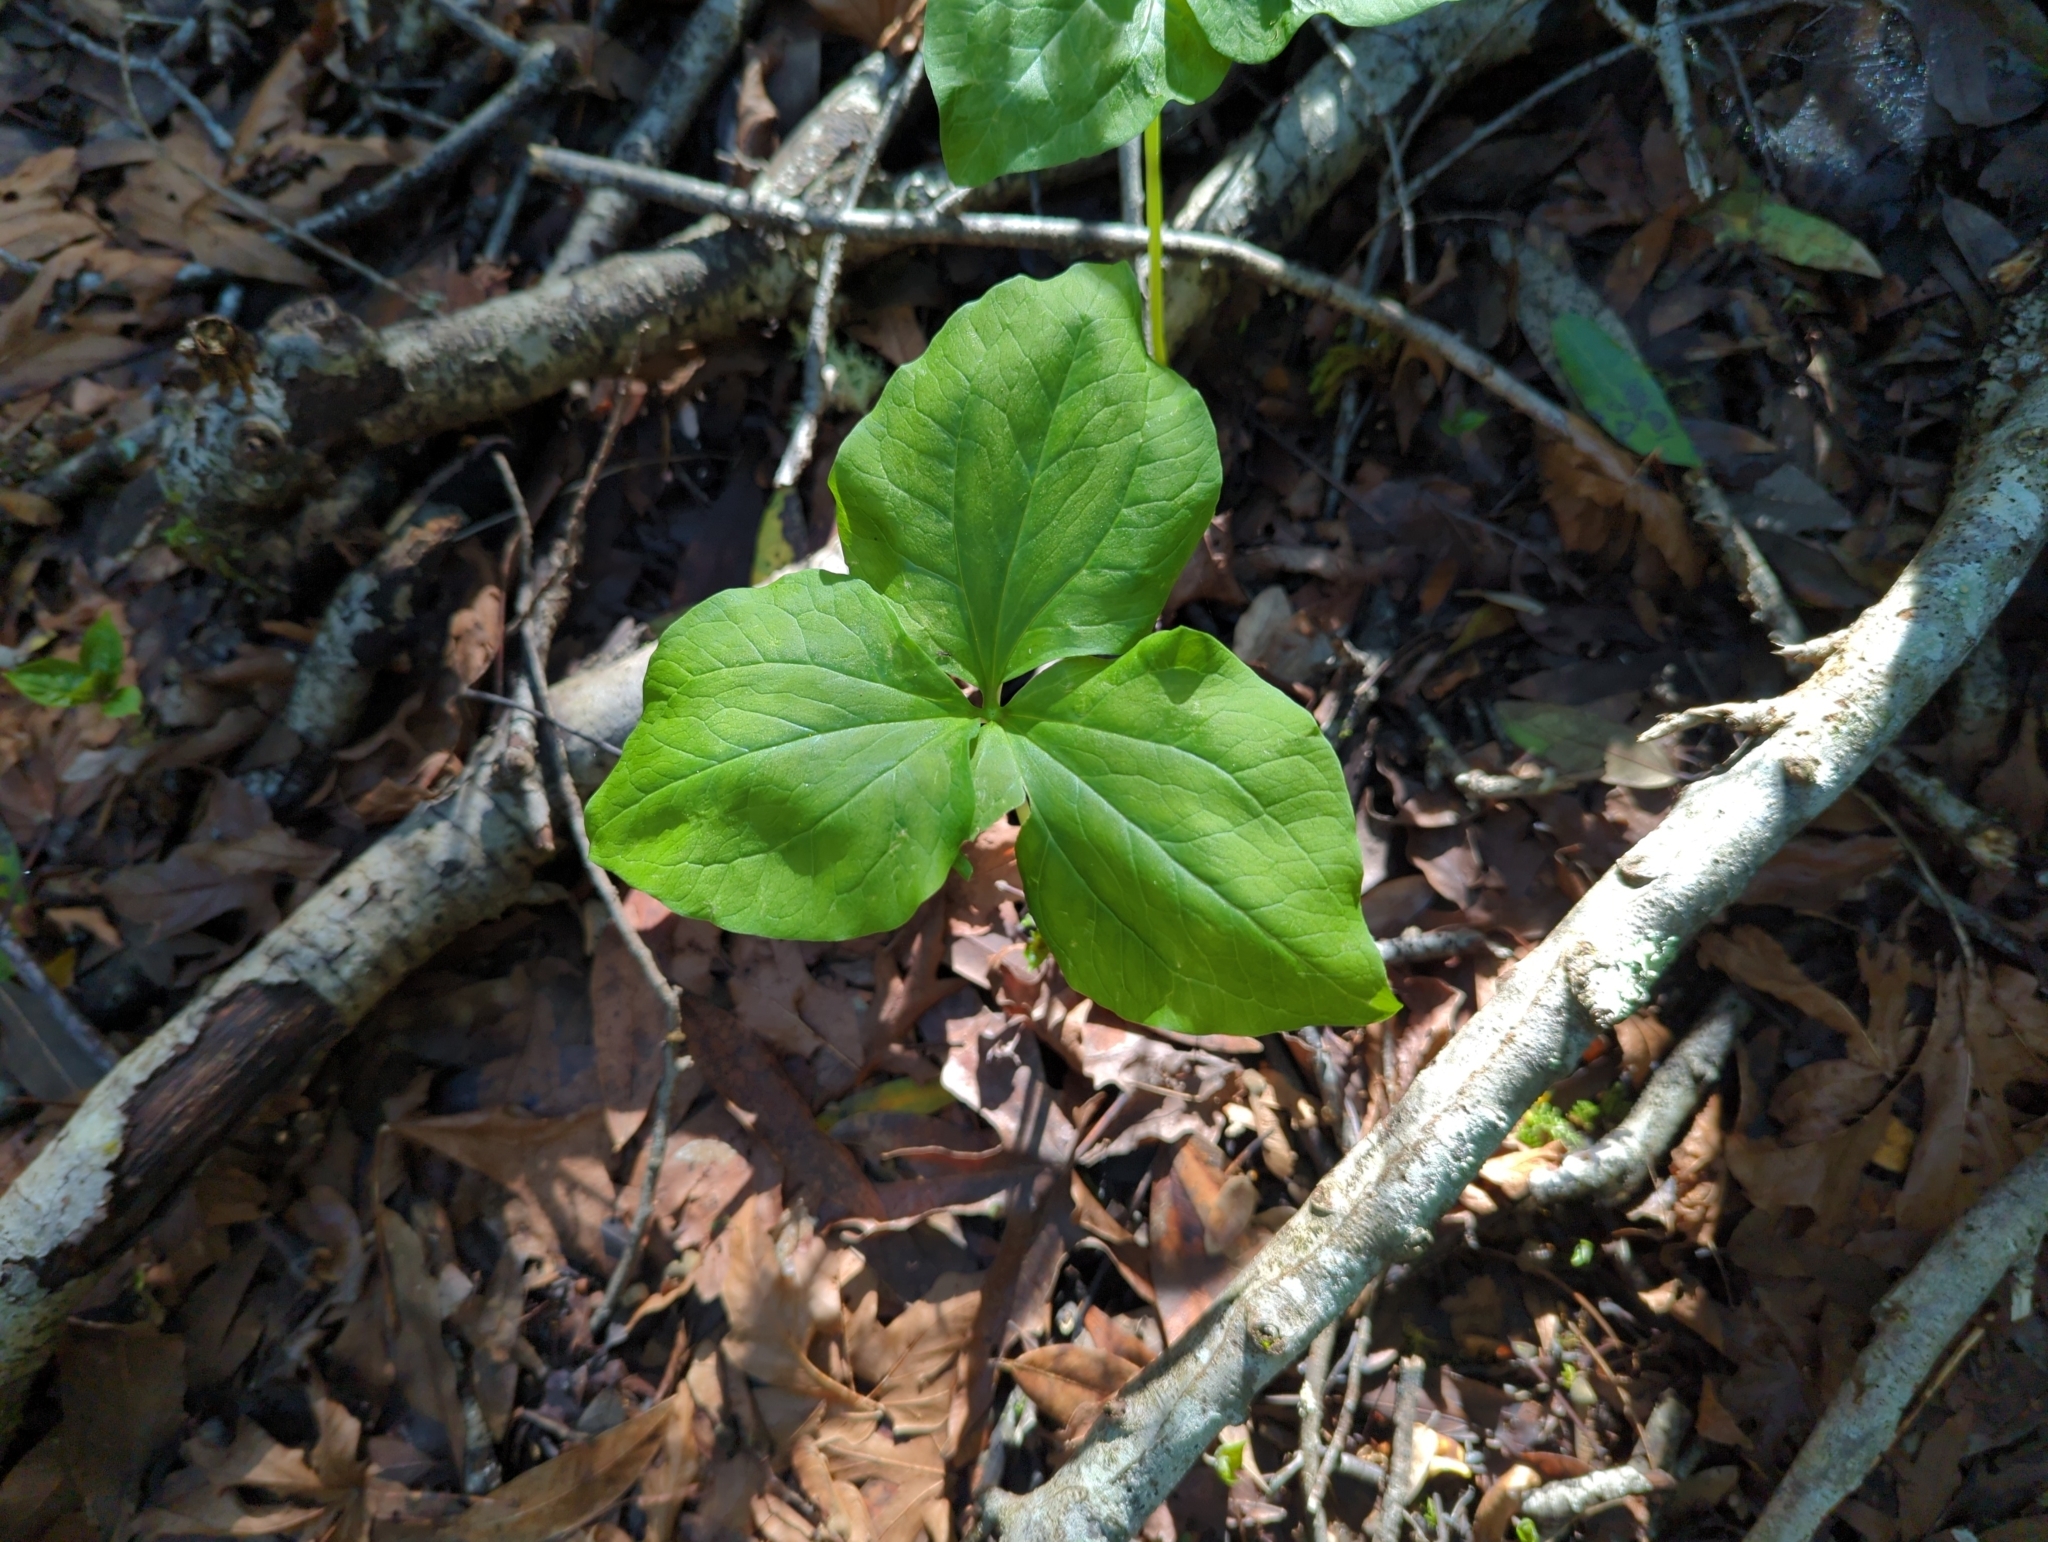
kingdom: Plantae
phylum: Tracheophyta
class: Liliopsida
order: Liliales
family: Melanthiaceae
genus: Trillium
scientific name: Trillium chloropetalum
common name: Giant trillium
